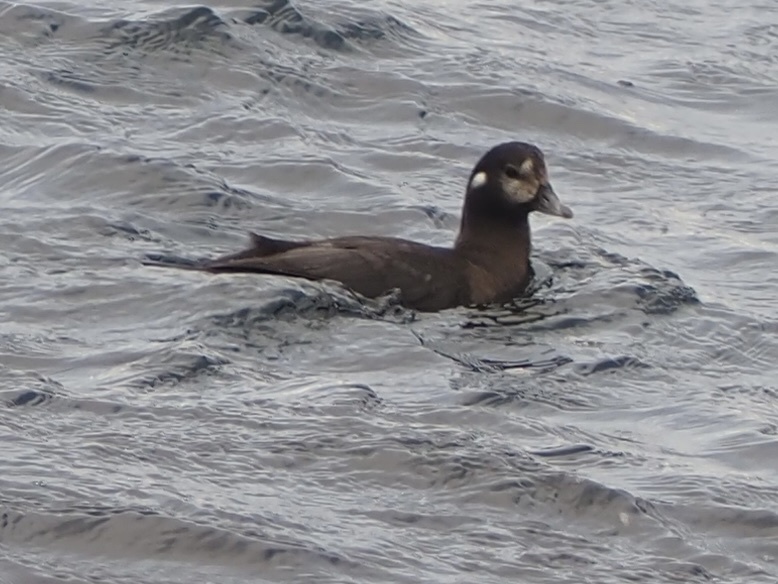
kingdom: Animalia
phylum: Chordata
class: Aves
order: Anseriformes
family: Anatidae
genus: Histrionicus
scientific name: Histrionicus histrionicus
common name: Harlequin duck
